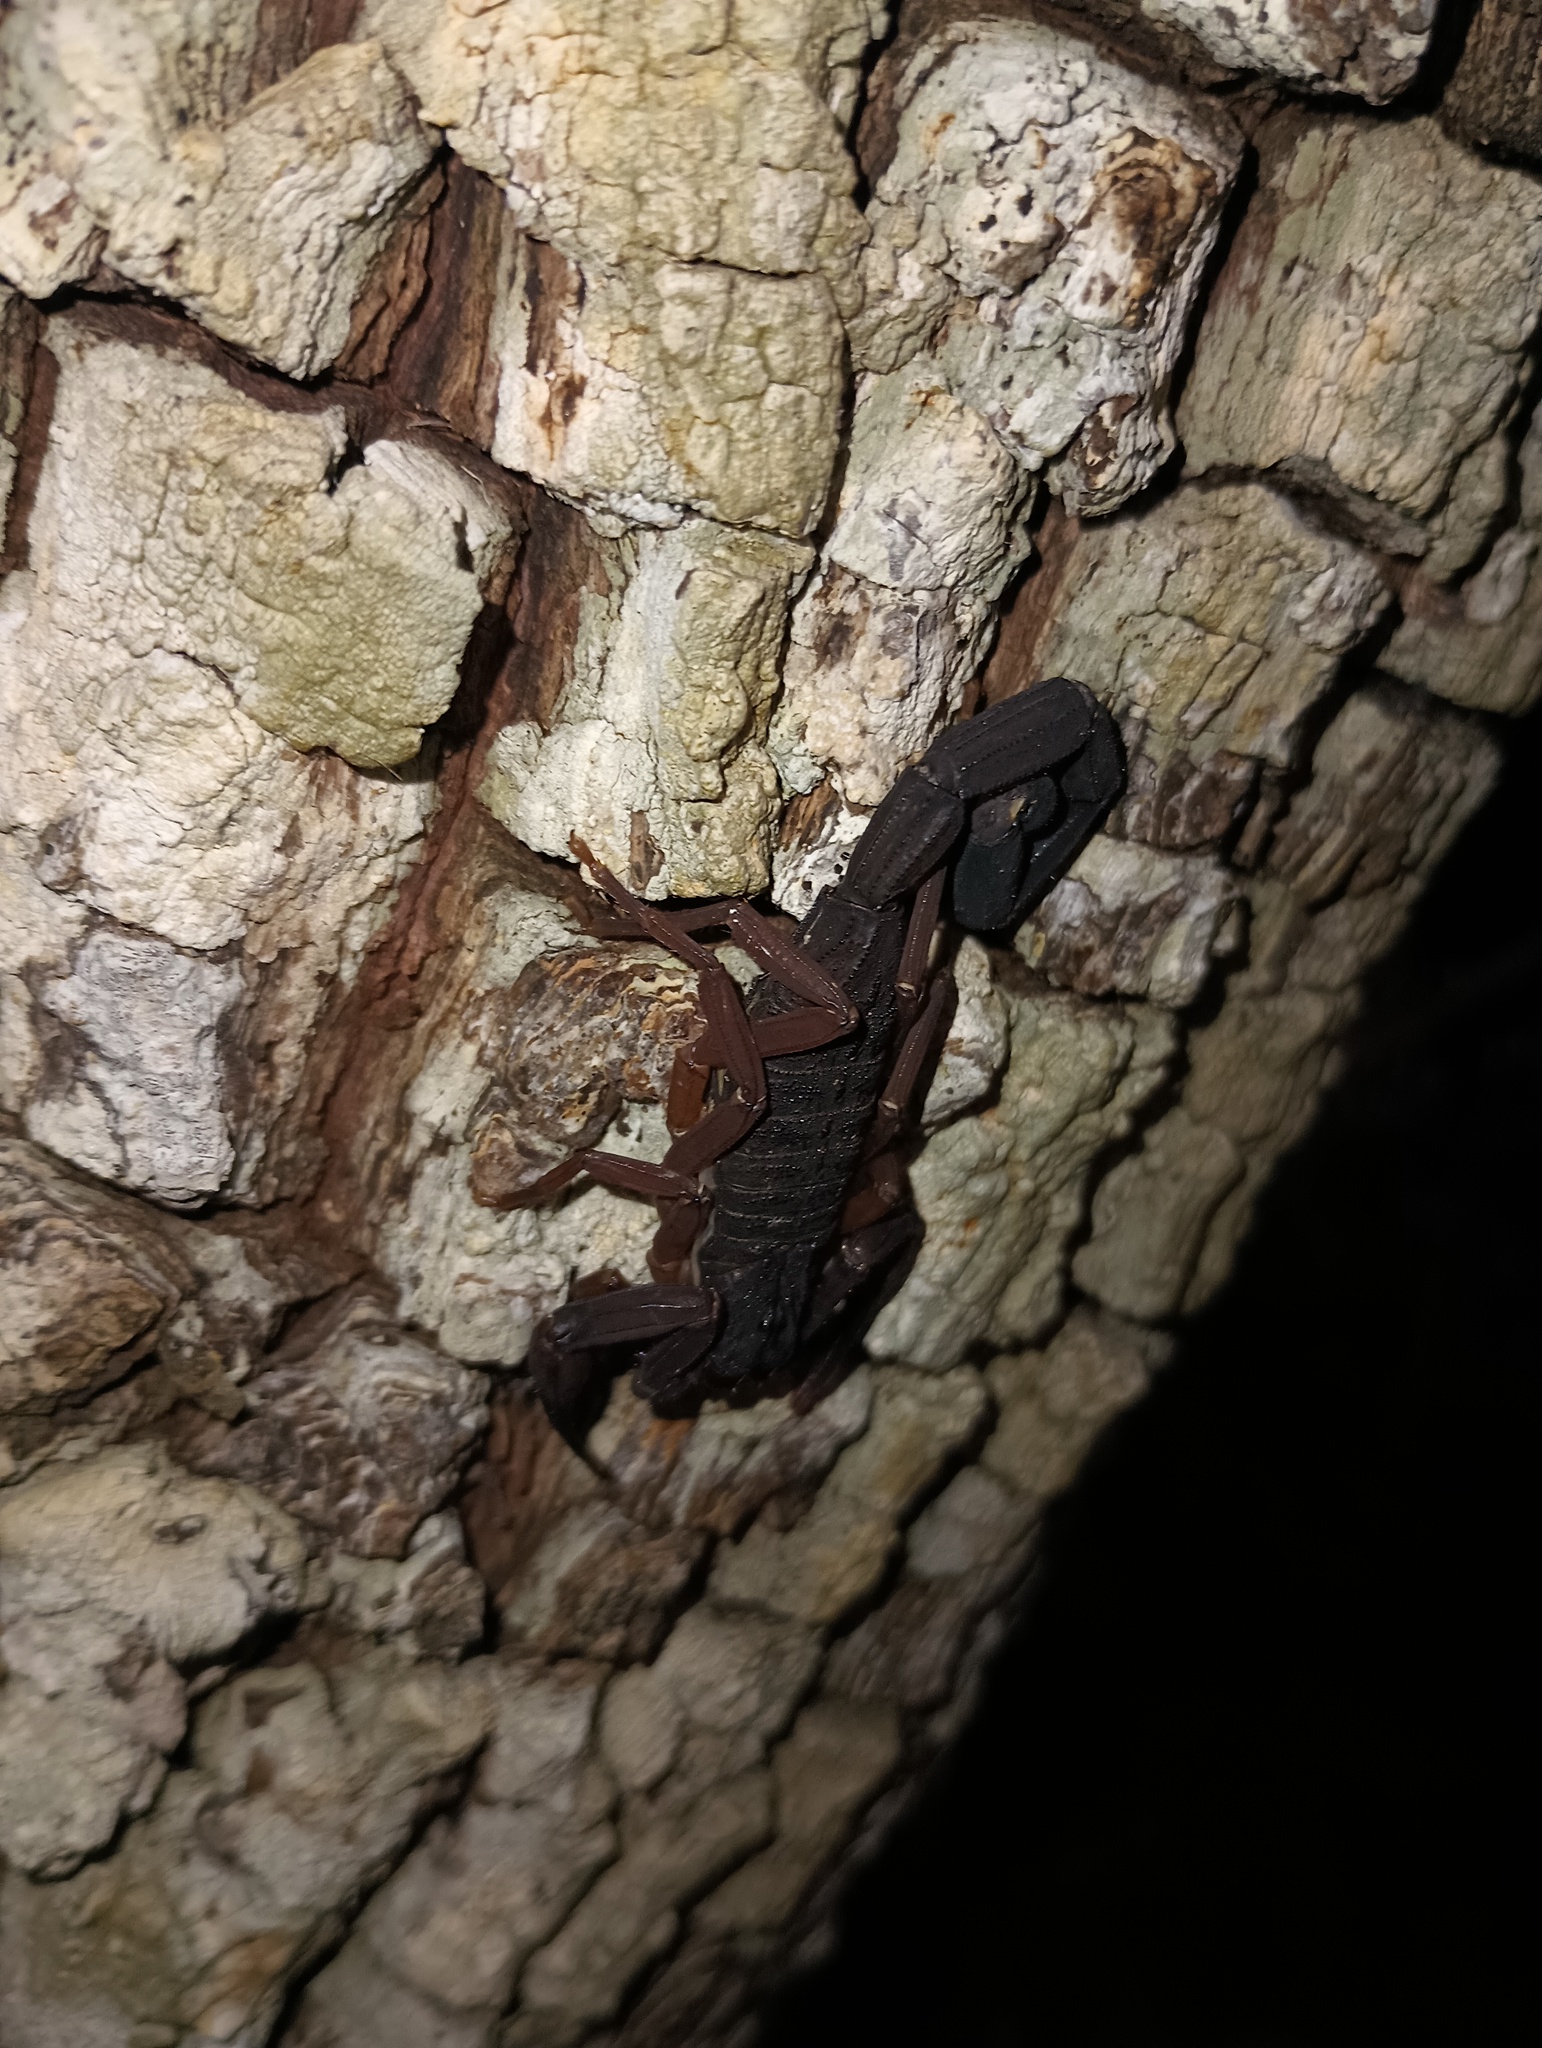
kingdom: Animalia
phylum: Arthropoda
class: Arachnida
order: Scorpiones
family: Buthidae
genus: Centruroides
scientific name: Centruroides gracilis
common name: Scorpions
